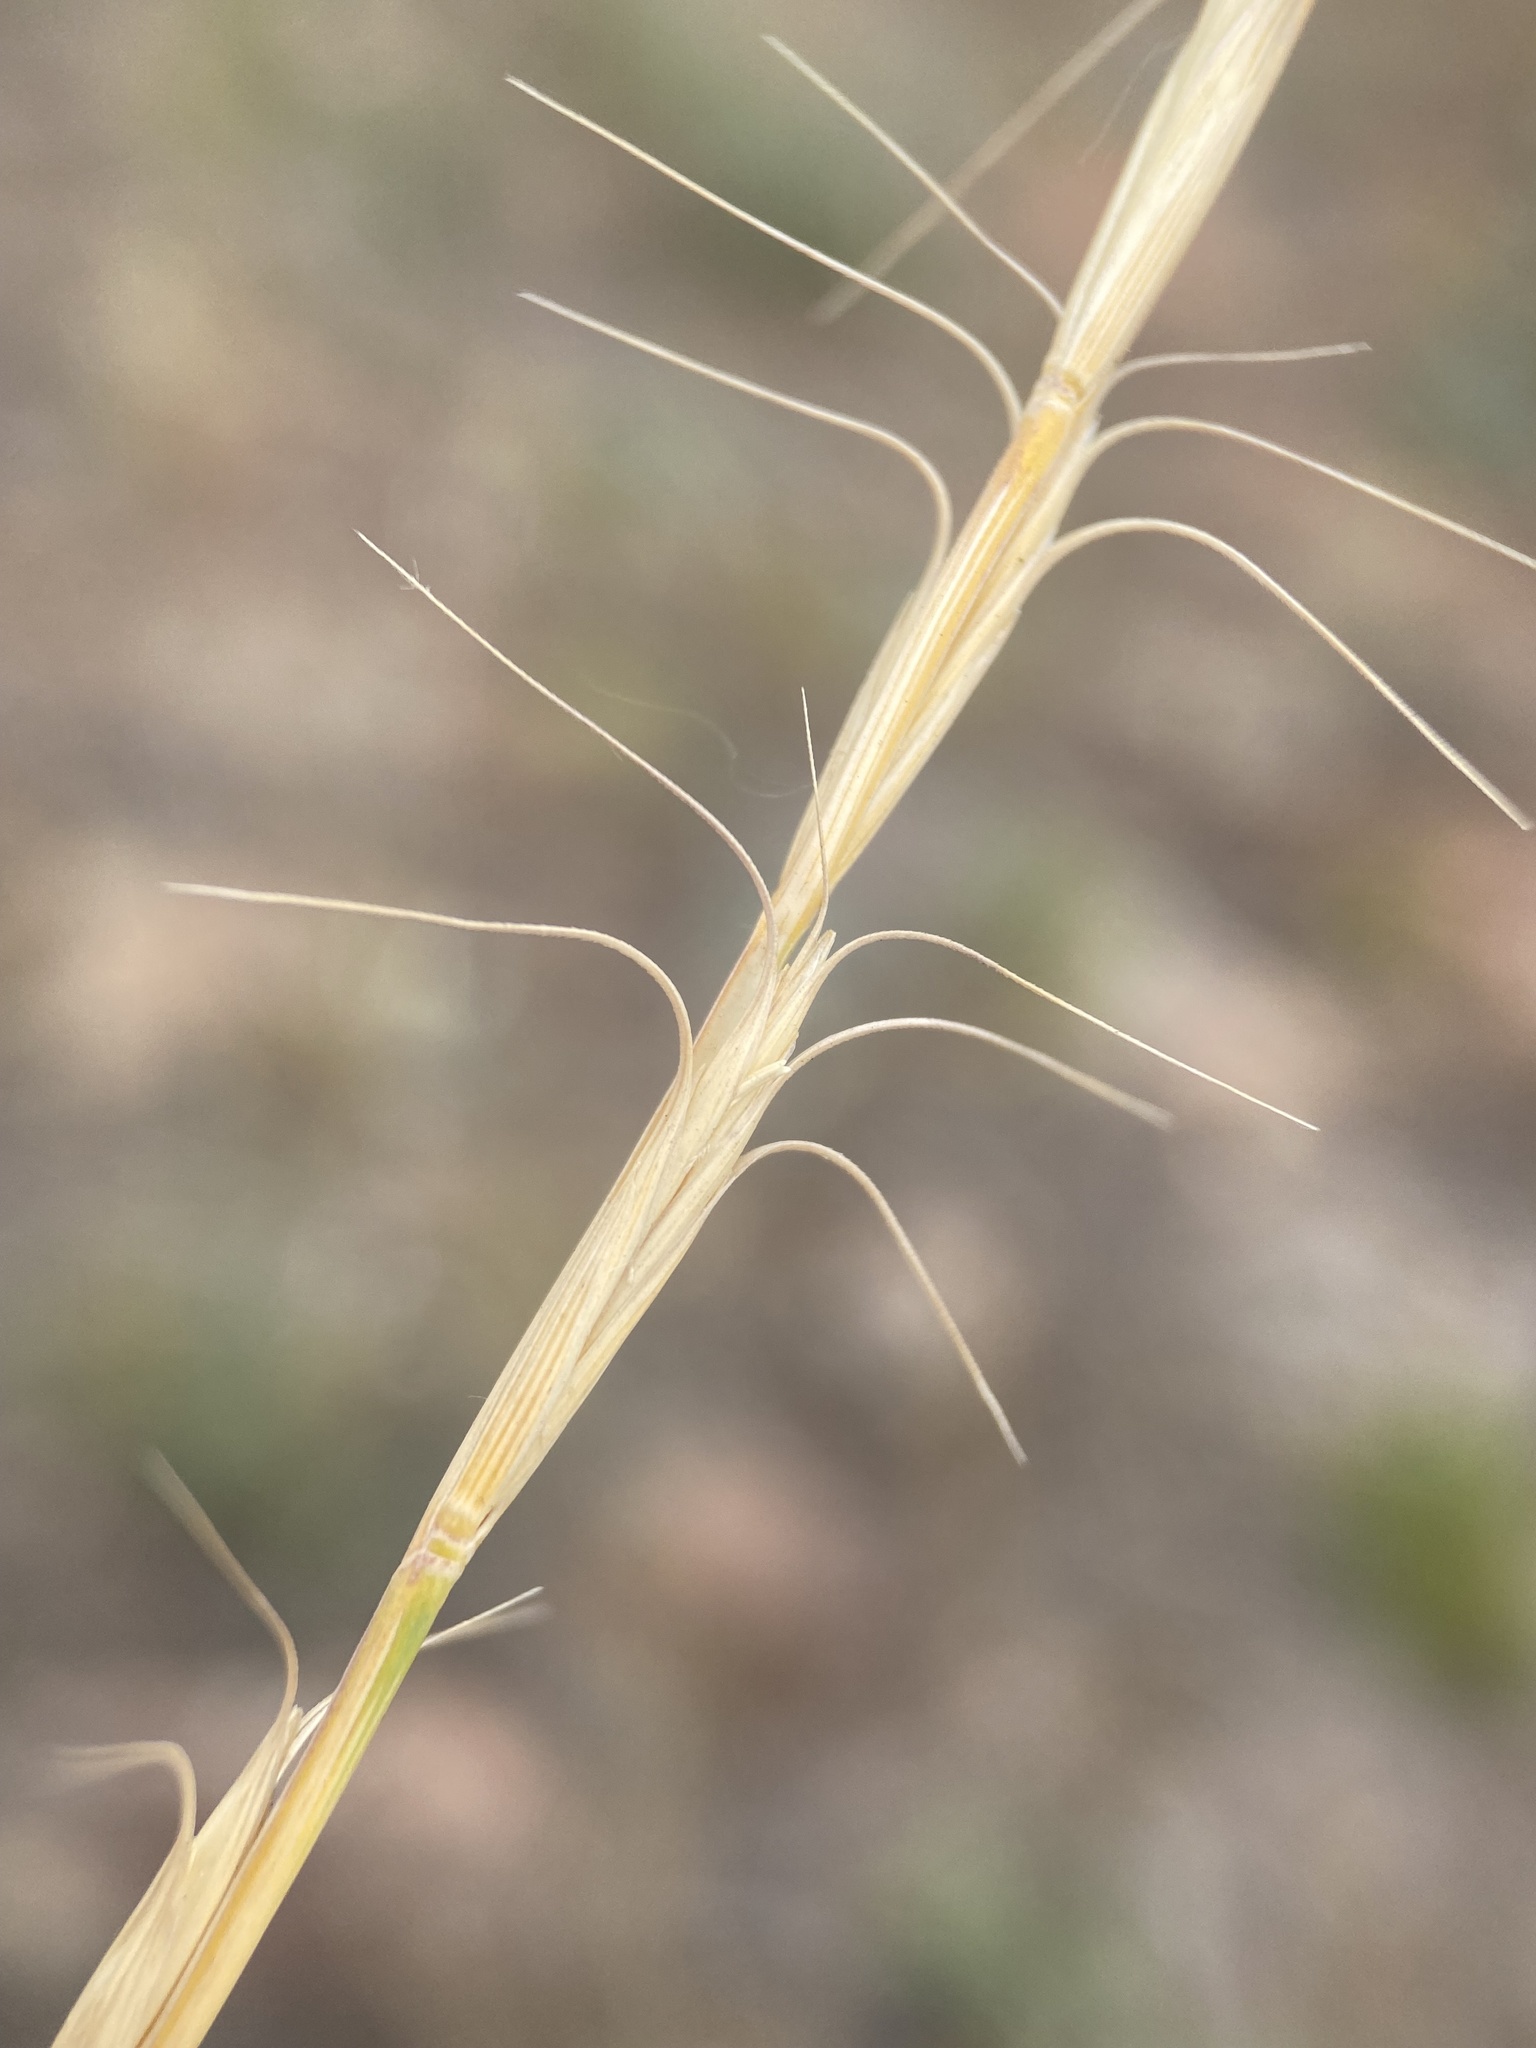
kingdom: Plantae
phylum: Tracheophyta
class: Liliopsida
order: Poales
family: Poaceae
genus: Pseudoroegneria
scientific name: Pseudoroegneria spicata
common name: Bluebunch wheatgrass
